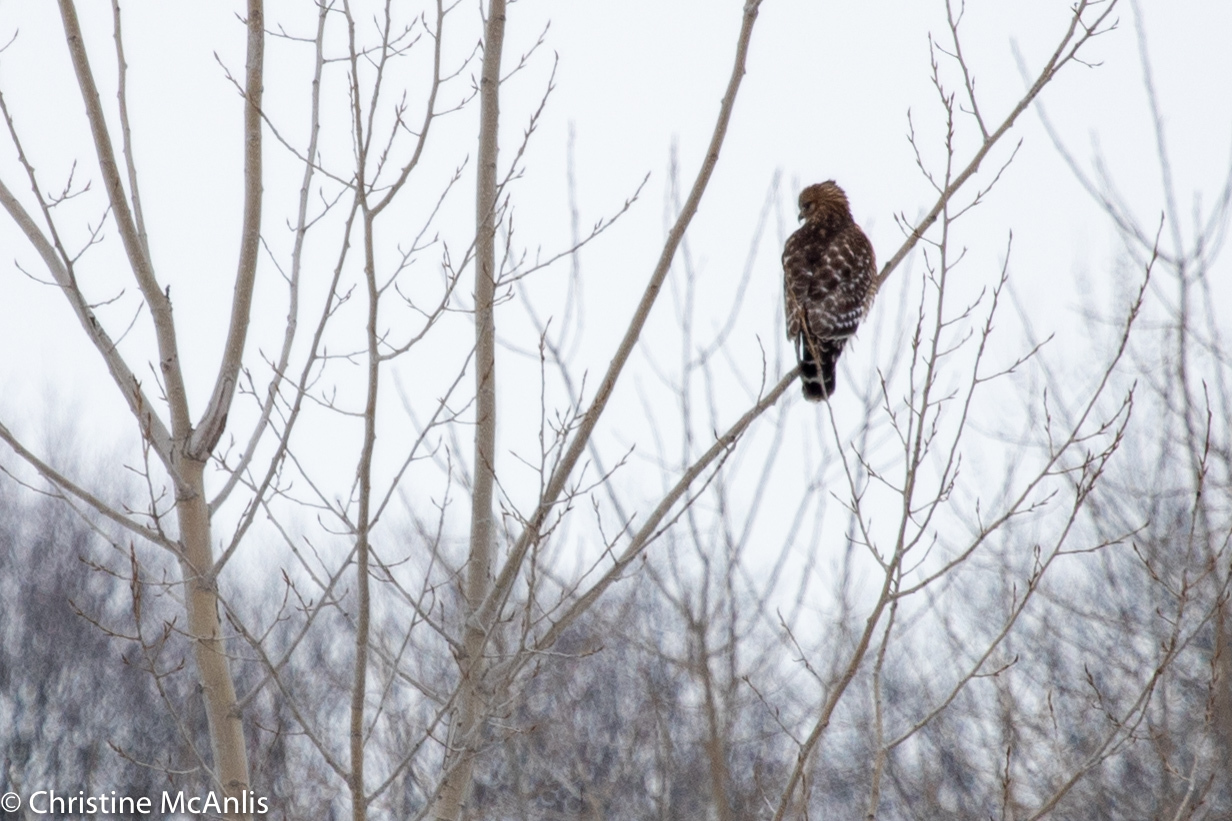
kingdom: Animalia
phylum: Chordata
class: Aves
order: Accipitriformes
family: Accipitridae
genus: Buteo
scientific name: Buteo lineatus
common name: Red-shouldered hawk
